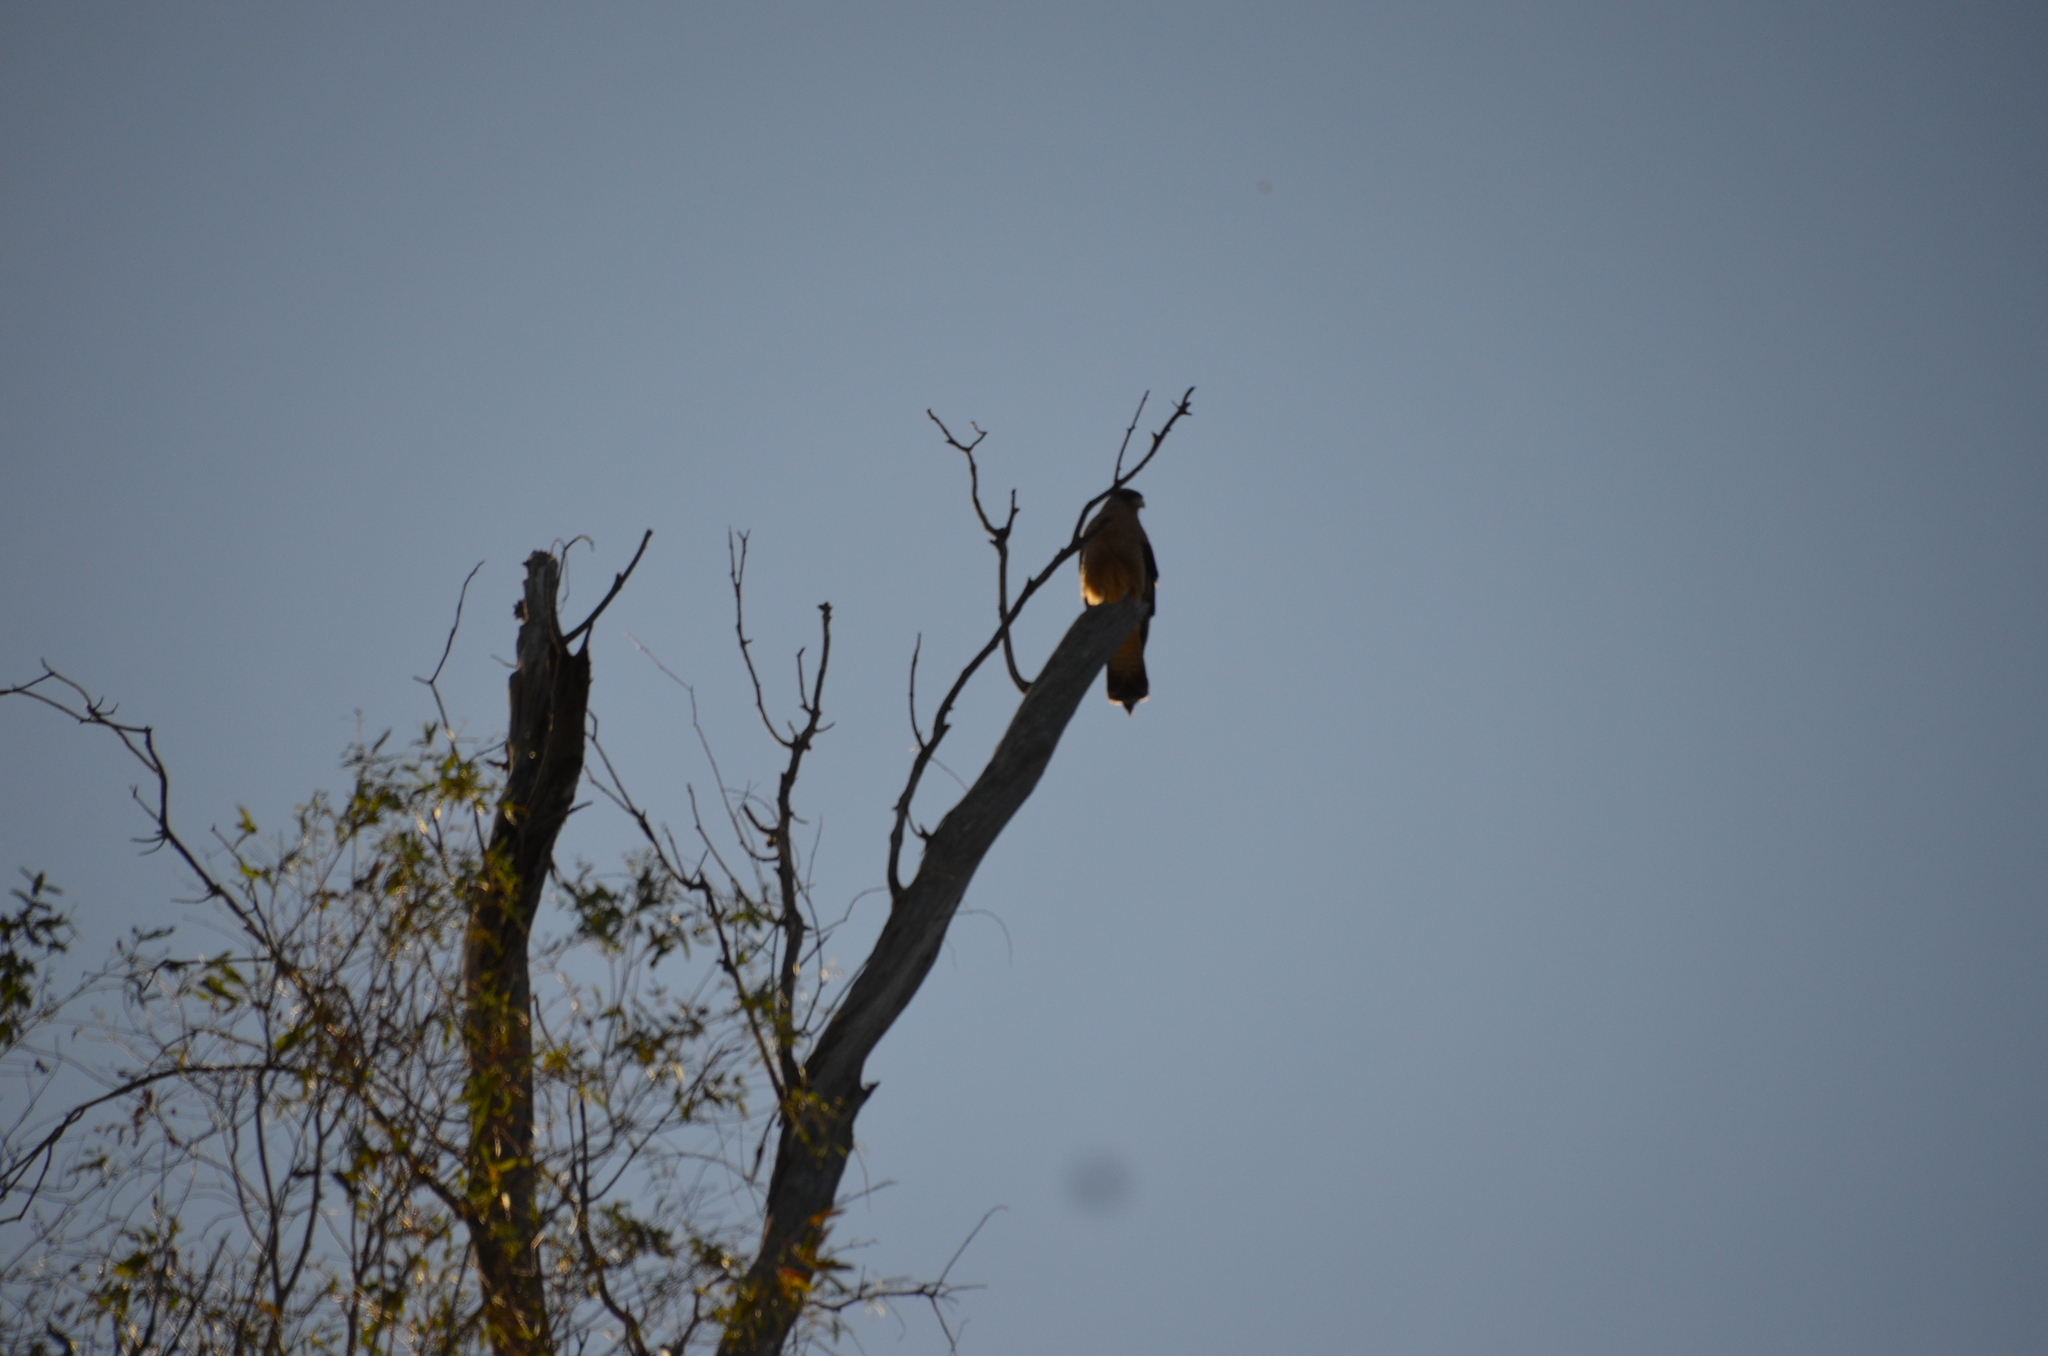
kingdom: Animalia
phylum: Chordata
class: Aves
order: Falconiformes
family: Falconidae
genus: Daptrius
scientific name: Daptrius
